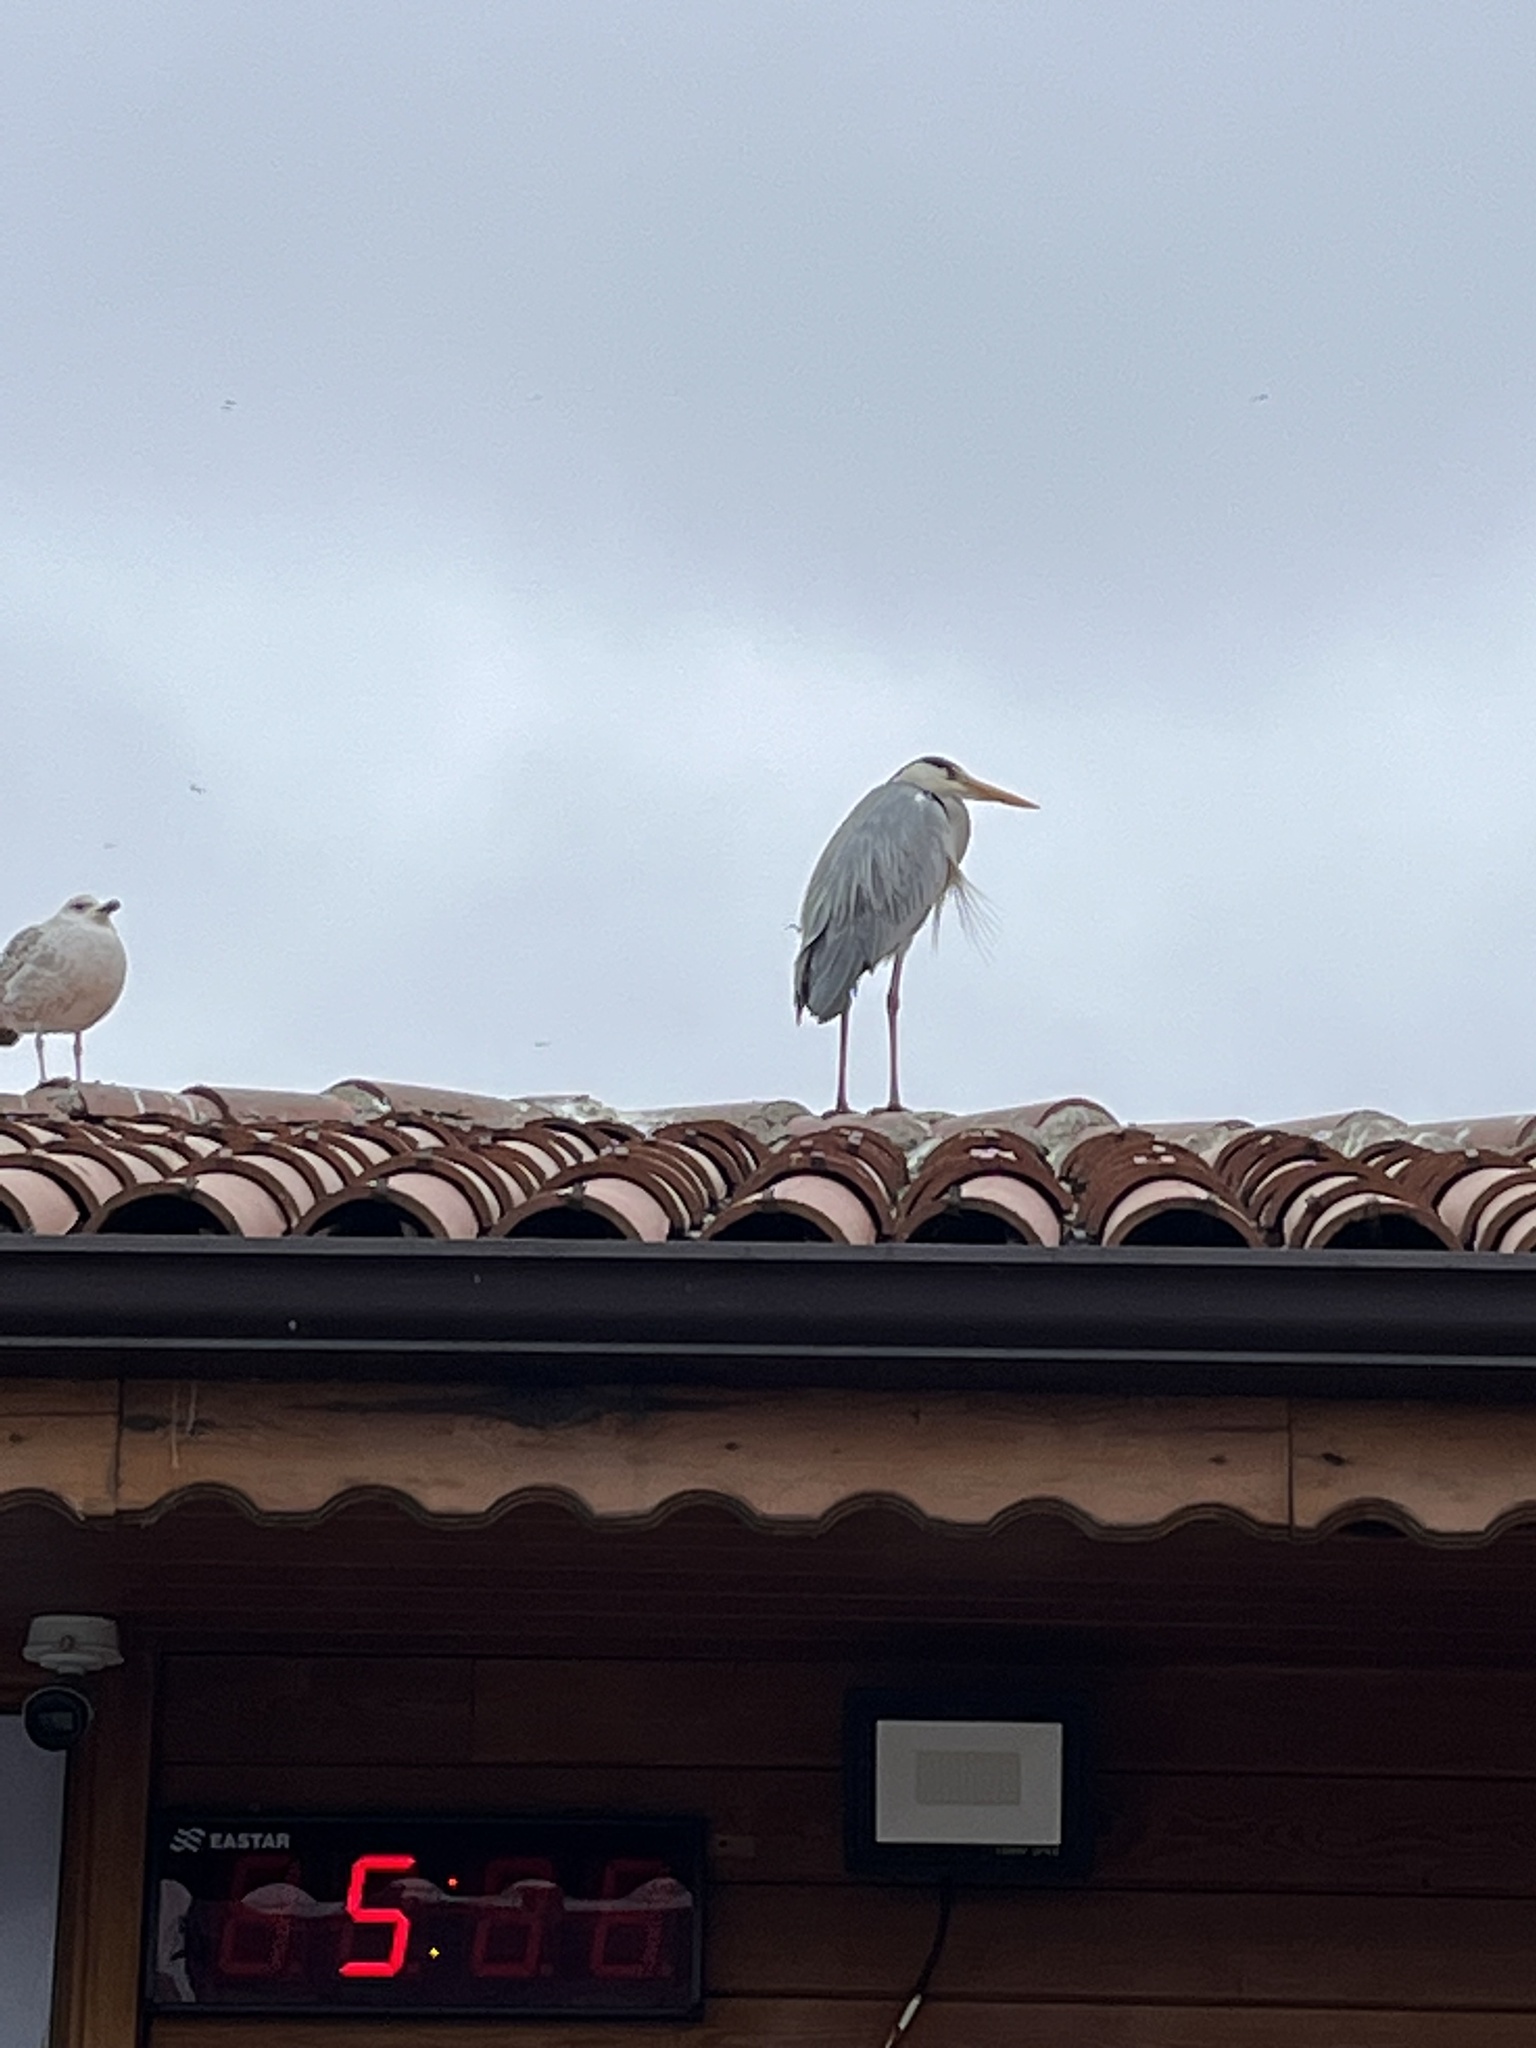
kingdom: Animalia
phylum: Chordata
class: Aves
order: Pelecaniformes
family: Ardeidae
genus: Ardea
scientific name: Ardea cinerea
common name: Grey heron
